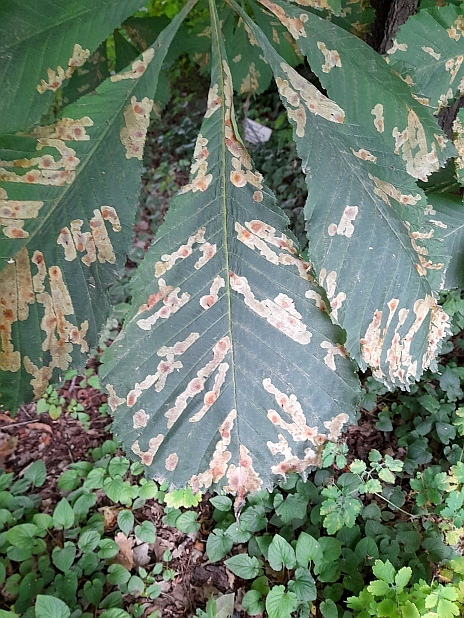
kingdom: Animalia
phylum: Arthropoda
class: Insecta
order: Lepidoptera
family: Gracillariidae
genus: Cameraria
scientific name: Cameraria ohridella
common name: Horse-chestnut leaf-miner
